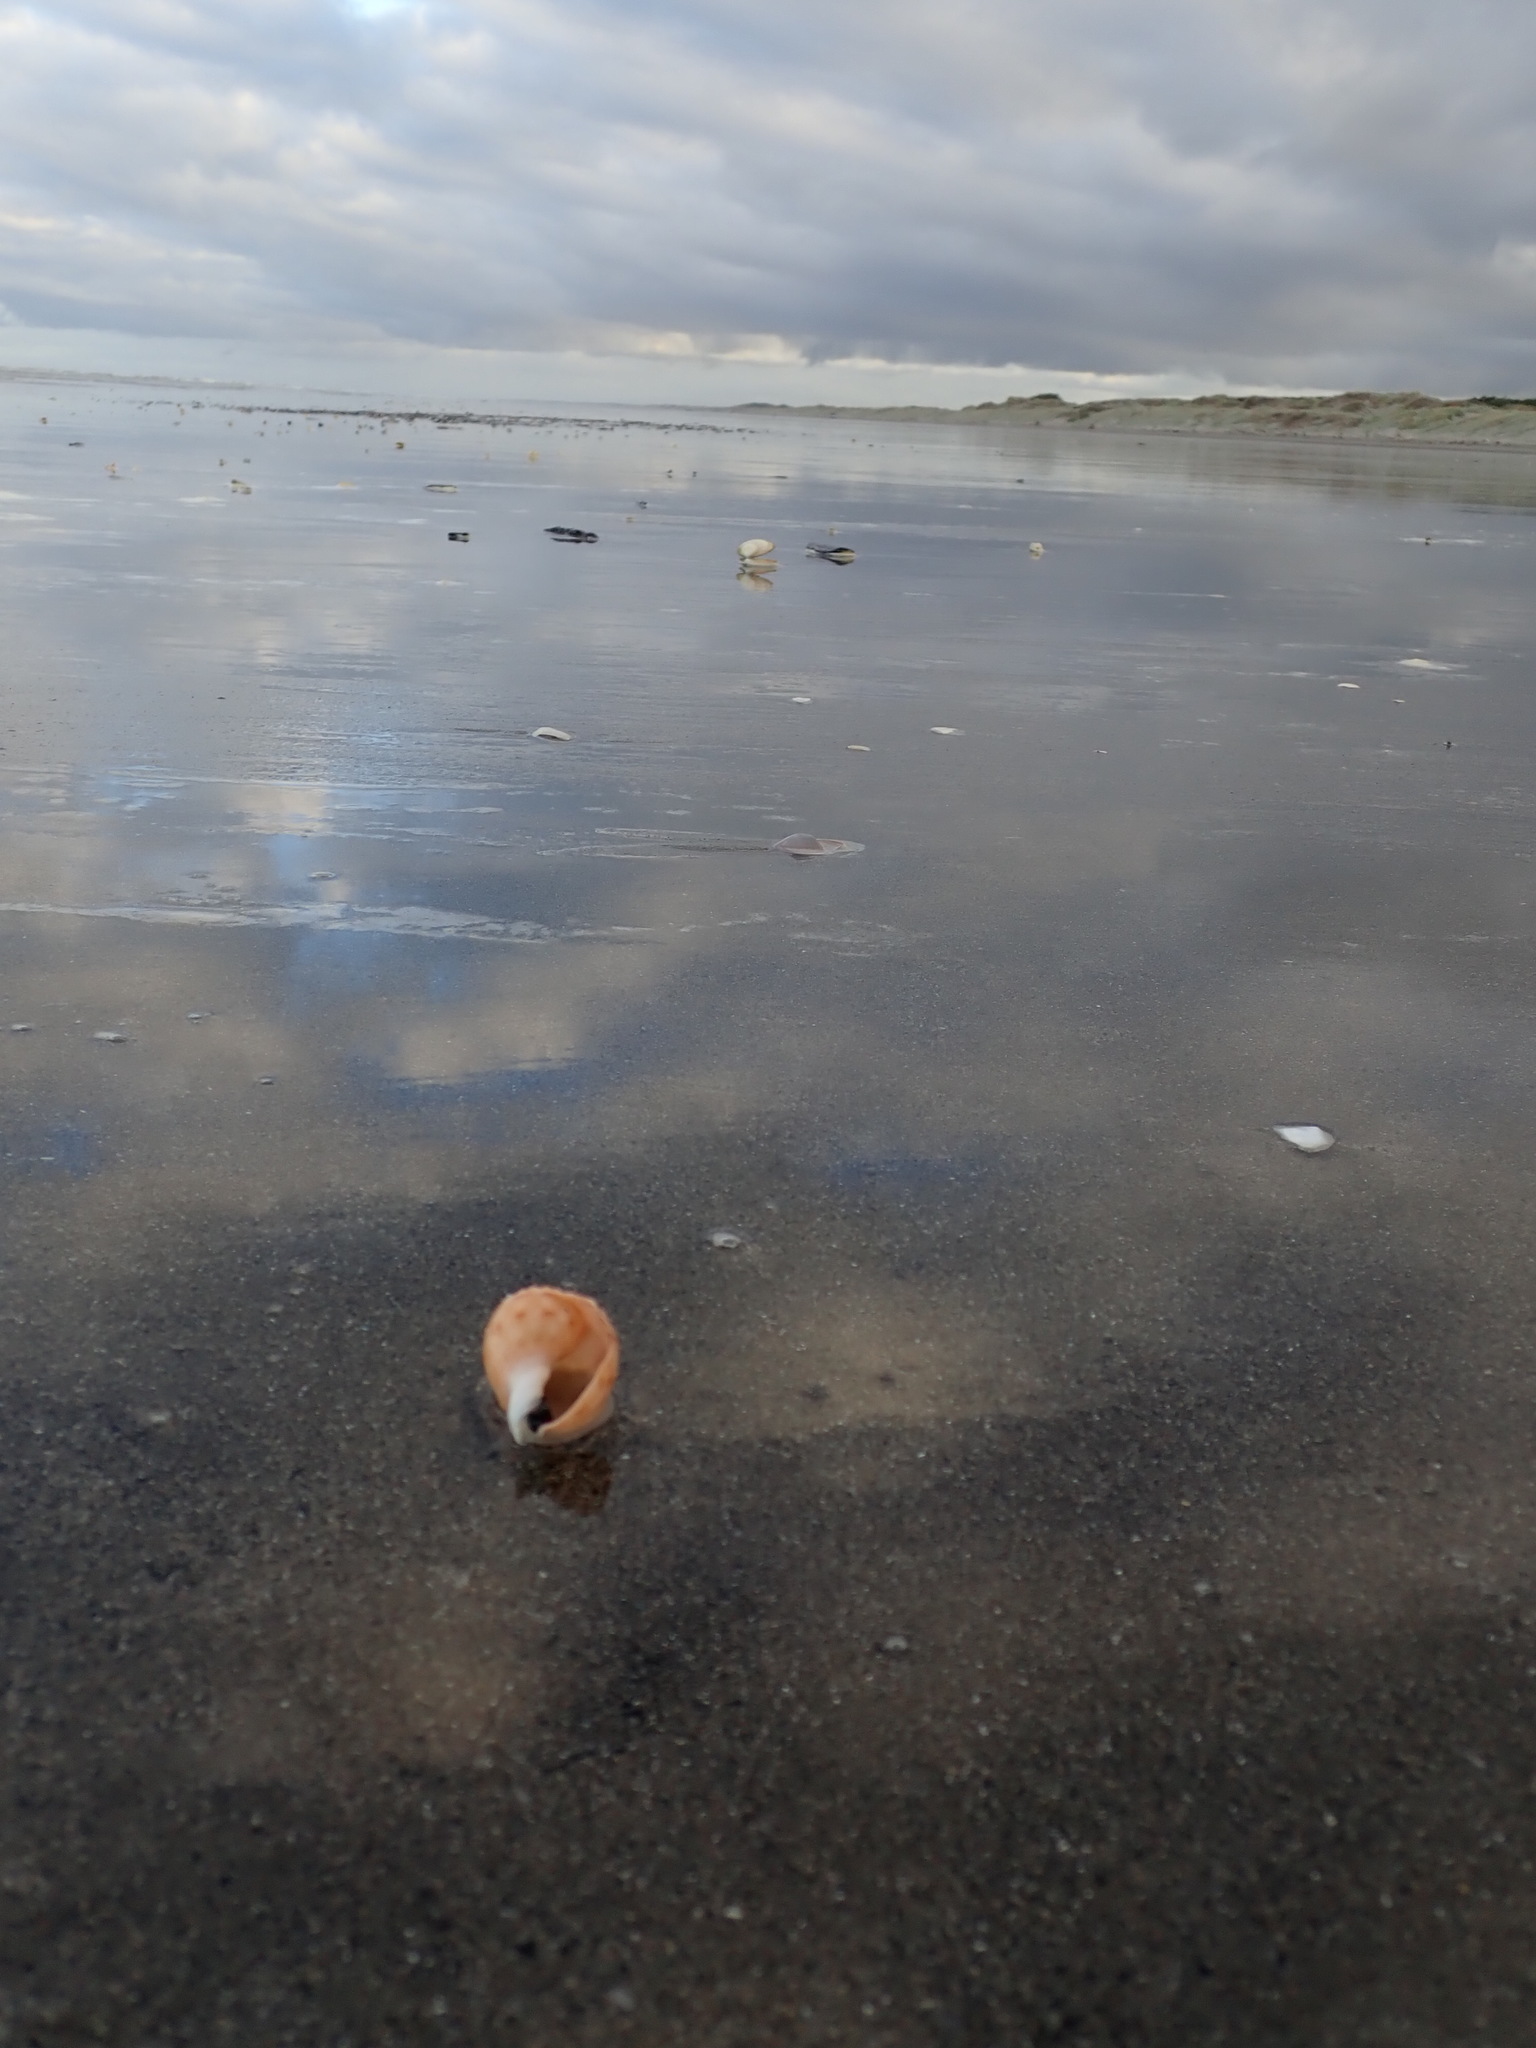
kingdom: Animalia
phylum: Mollusca
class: Gastropoda
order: Littorinimorpha
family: Cassidae
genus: Semicassis
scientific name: Semicassis pyrum
